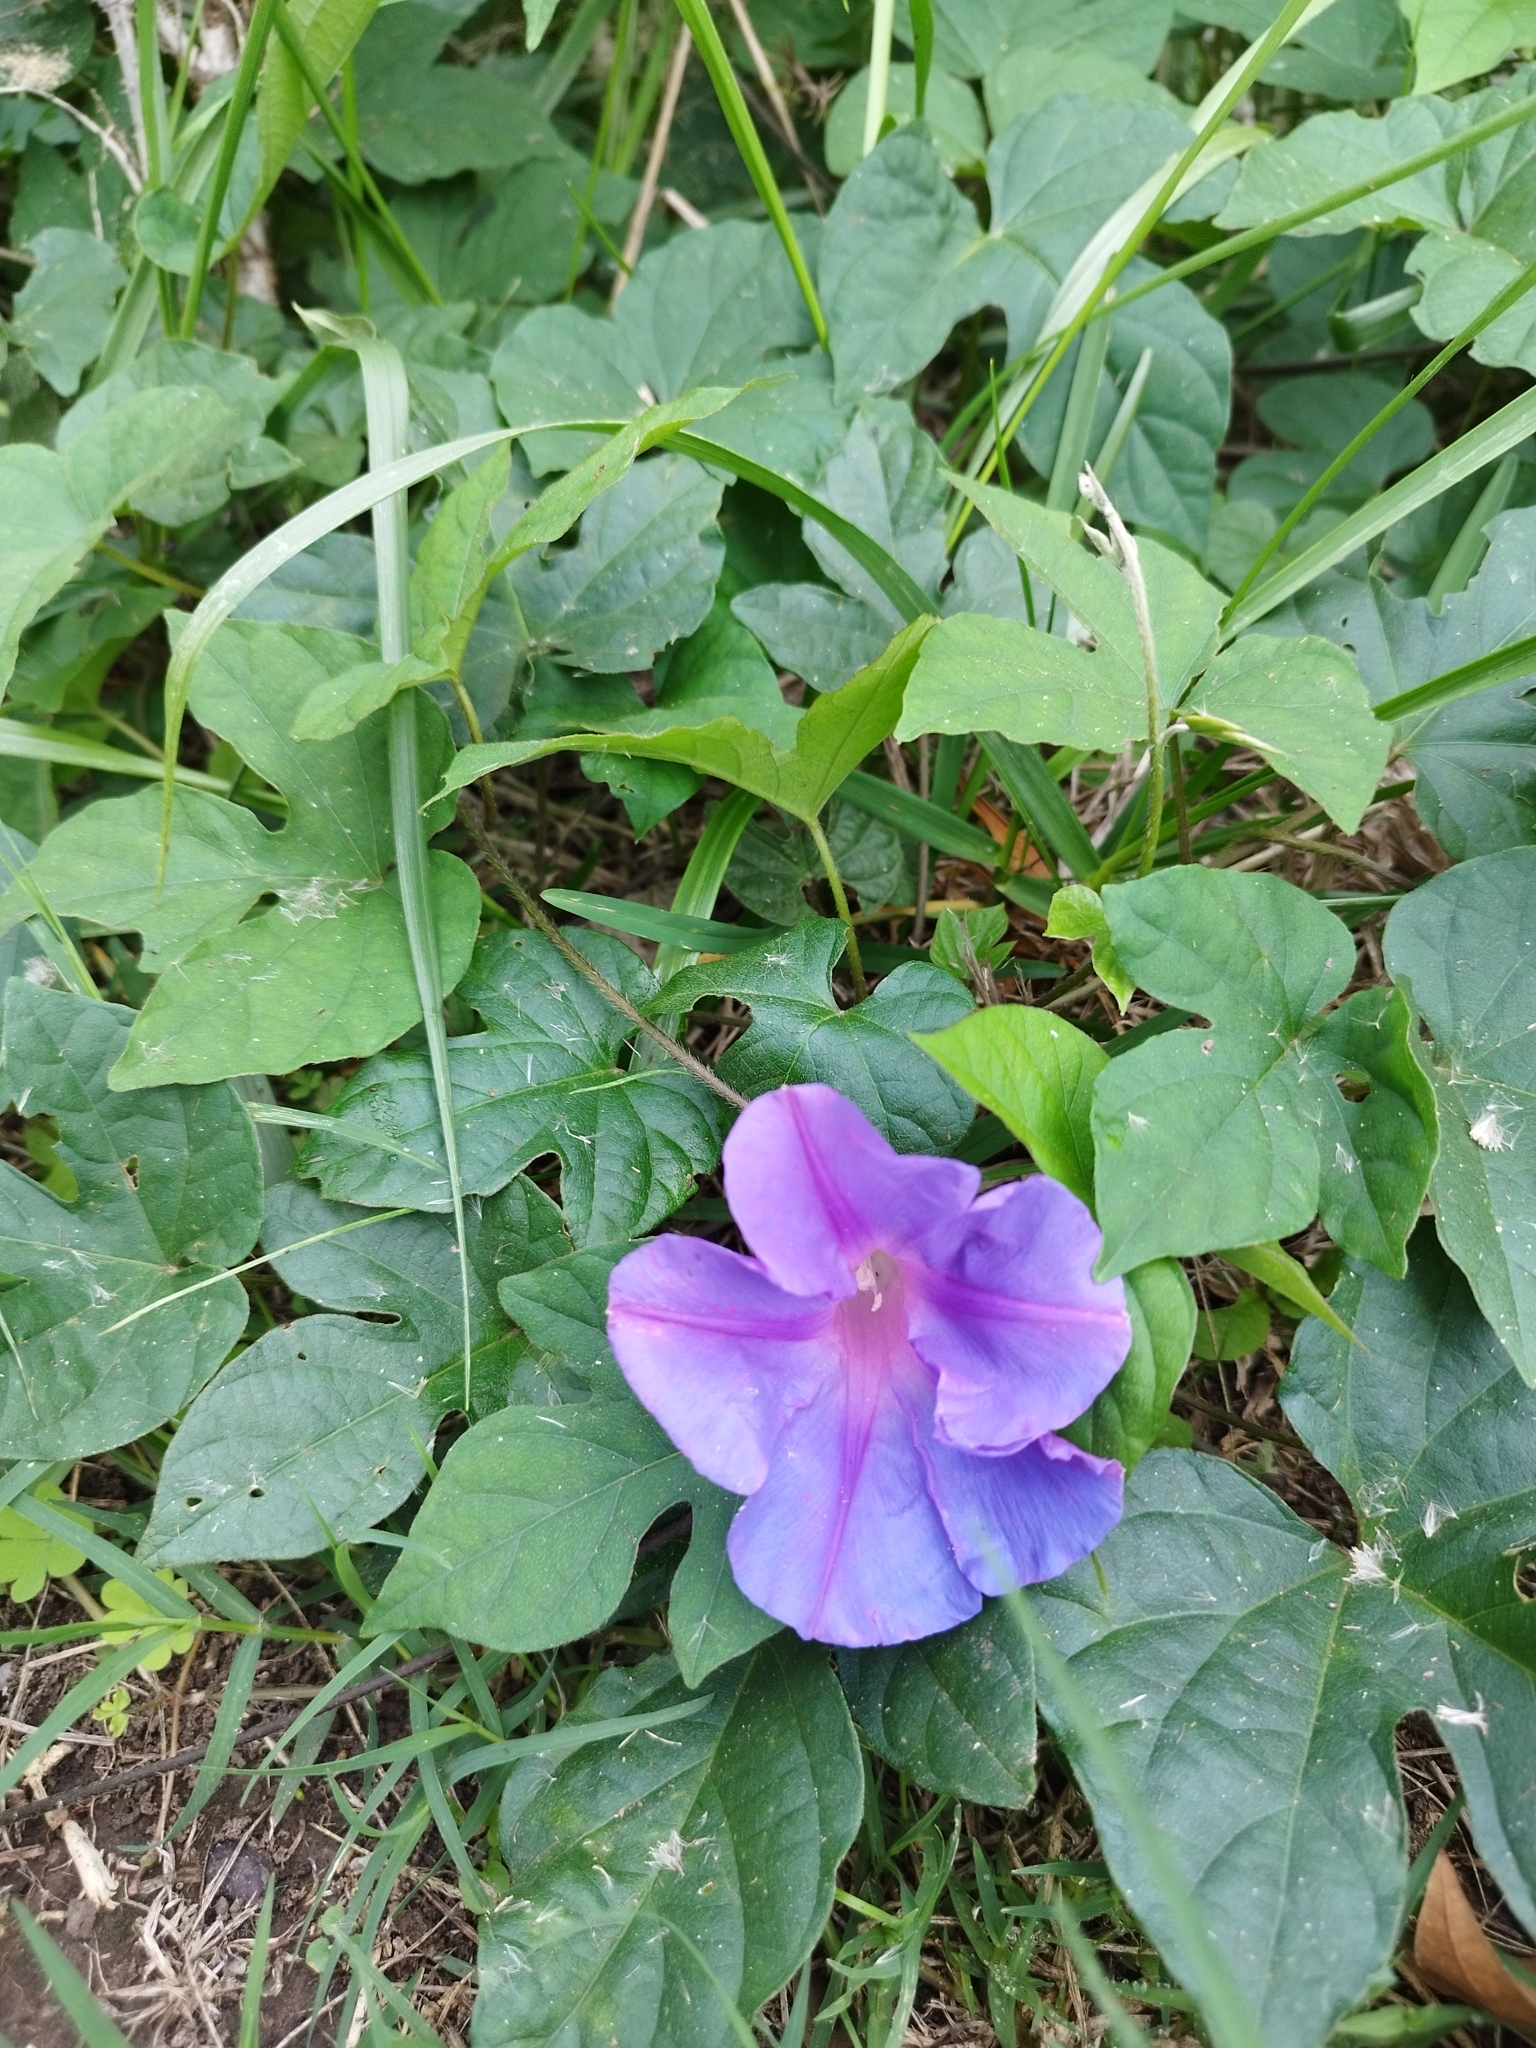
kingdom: Plantae
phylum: Tracheophyta
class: Magnoliopsida
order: Solanales
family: Convolvulaceae
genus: Ipomoea
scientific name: Ipomoea indica
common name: Blue dawnflower
